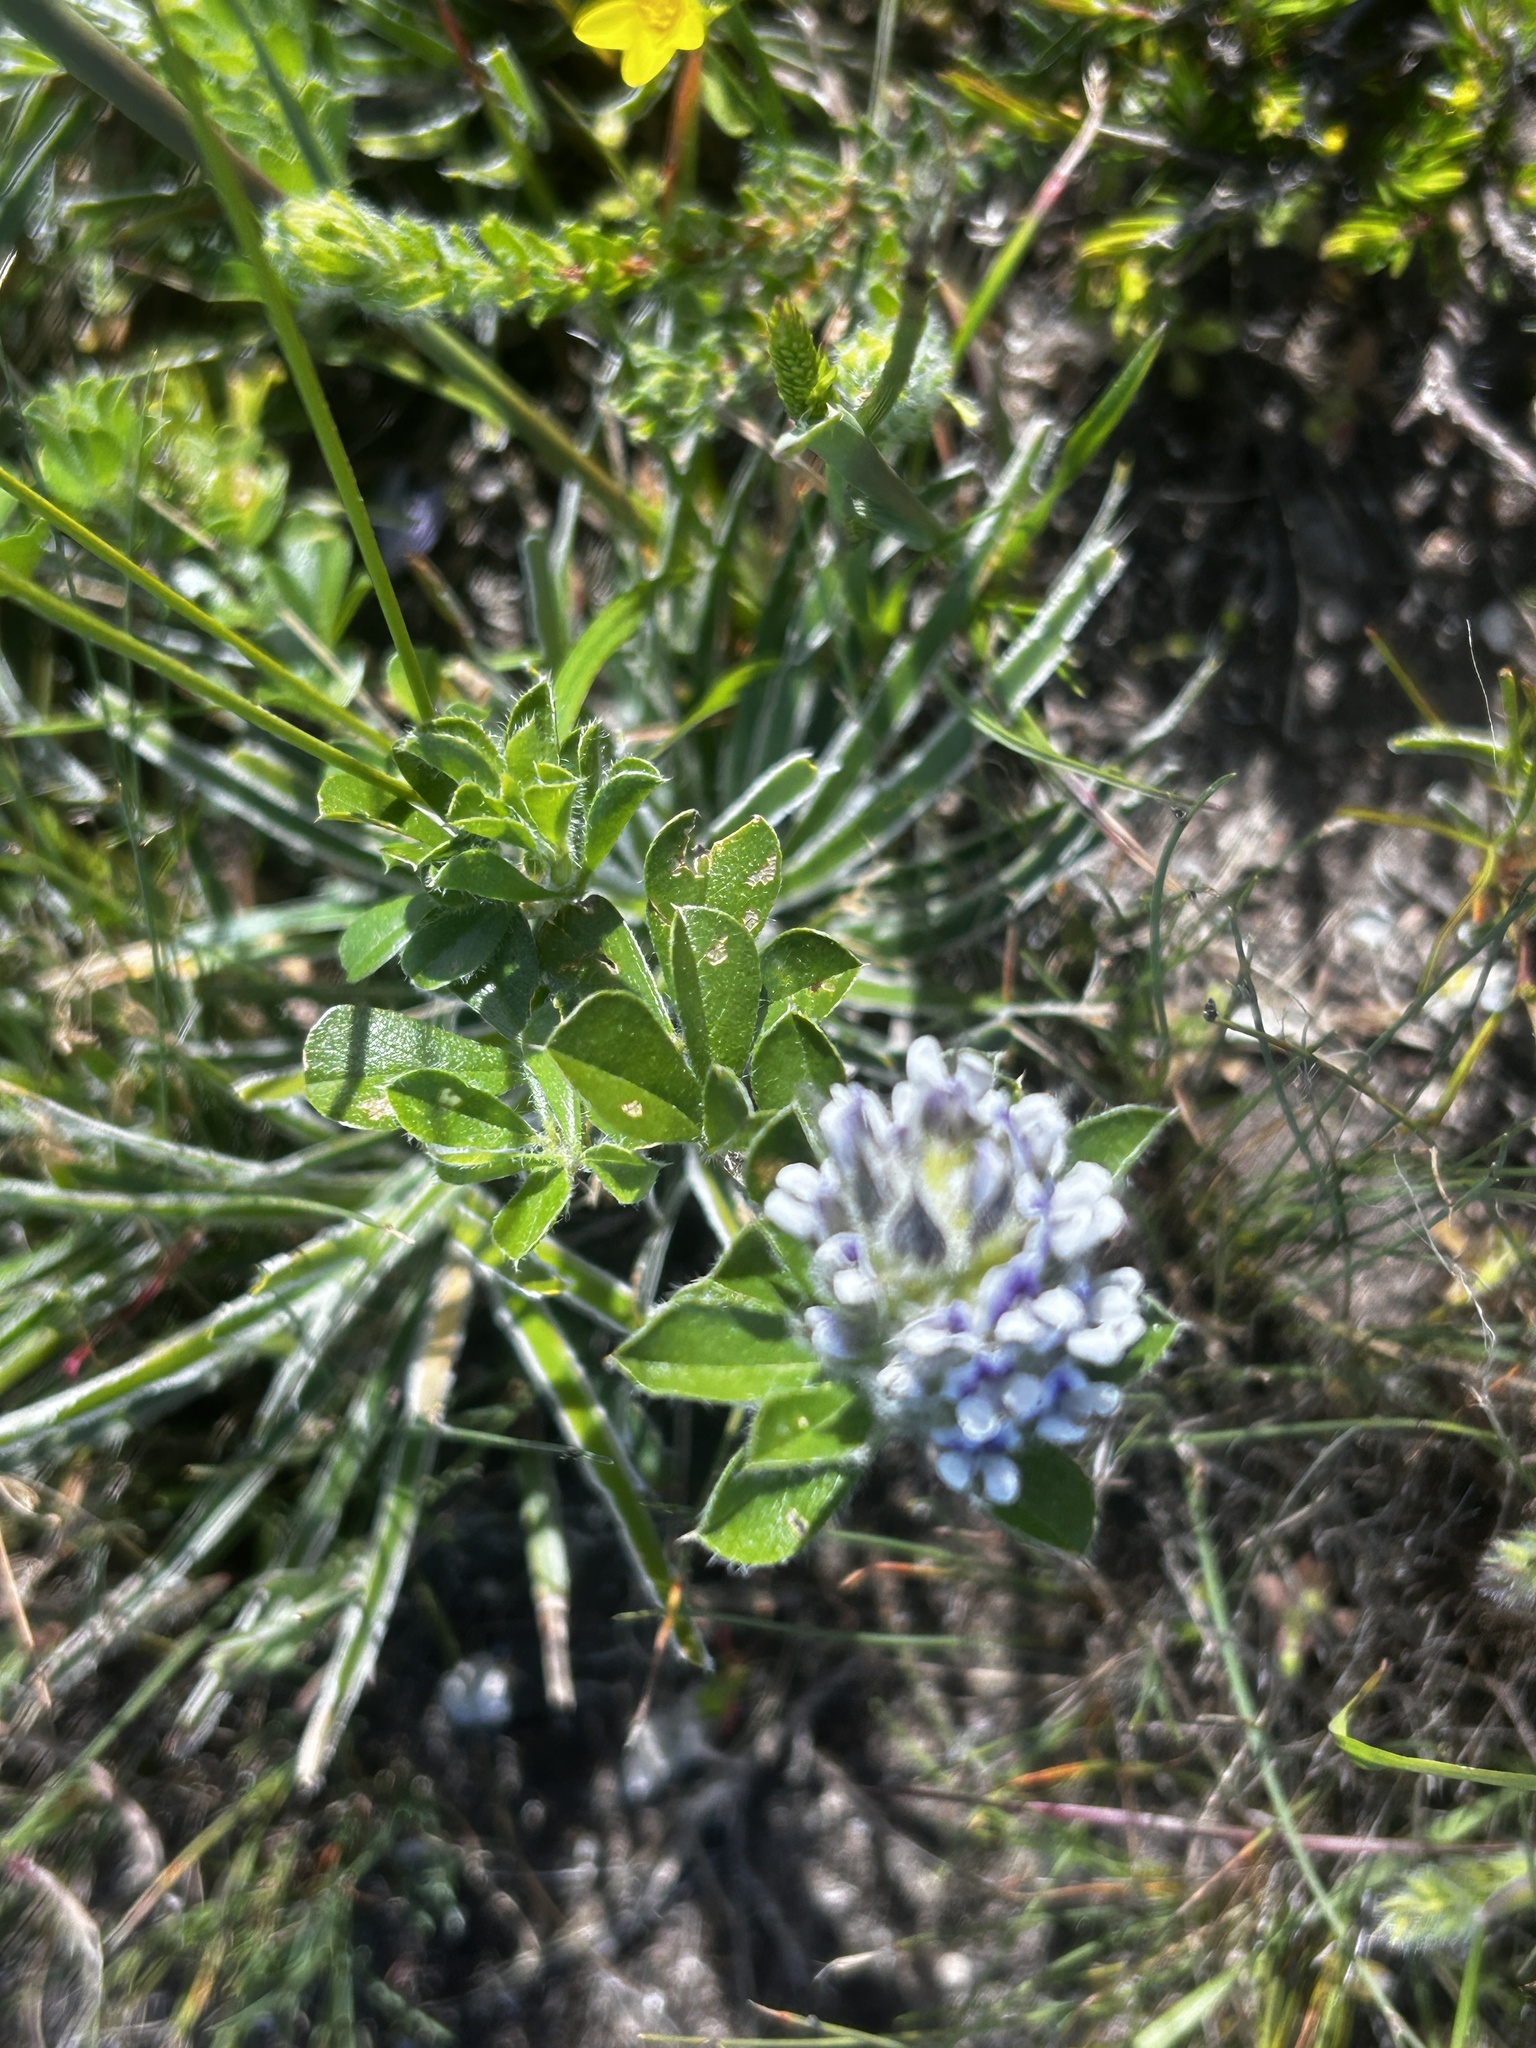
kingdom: Plantae
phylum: Tracheophyta
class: Magnoliopsida
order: Fabales
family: Fabaceae
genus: Psoralea
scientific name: Psoralea bracteolata
